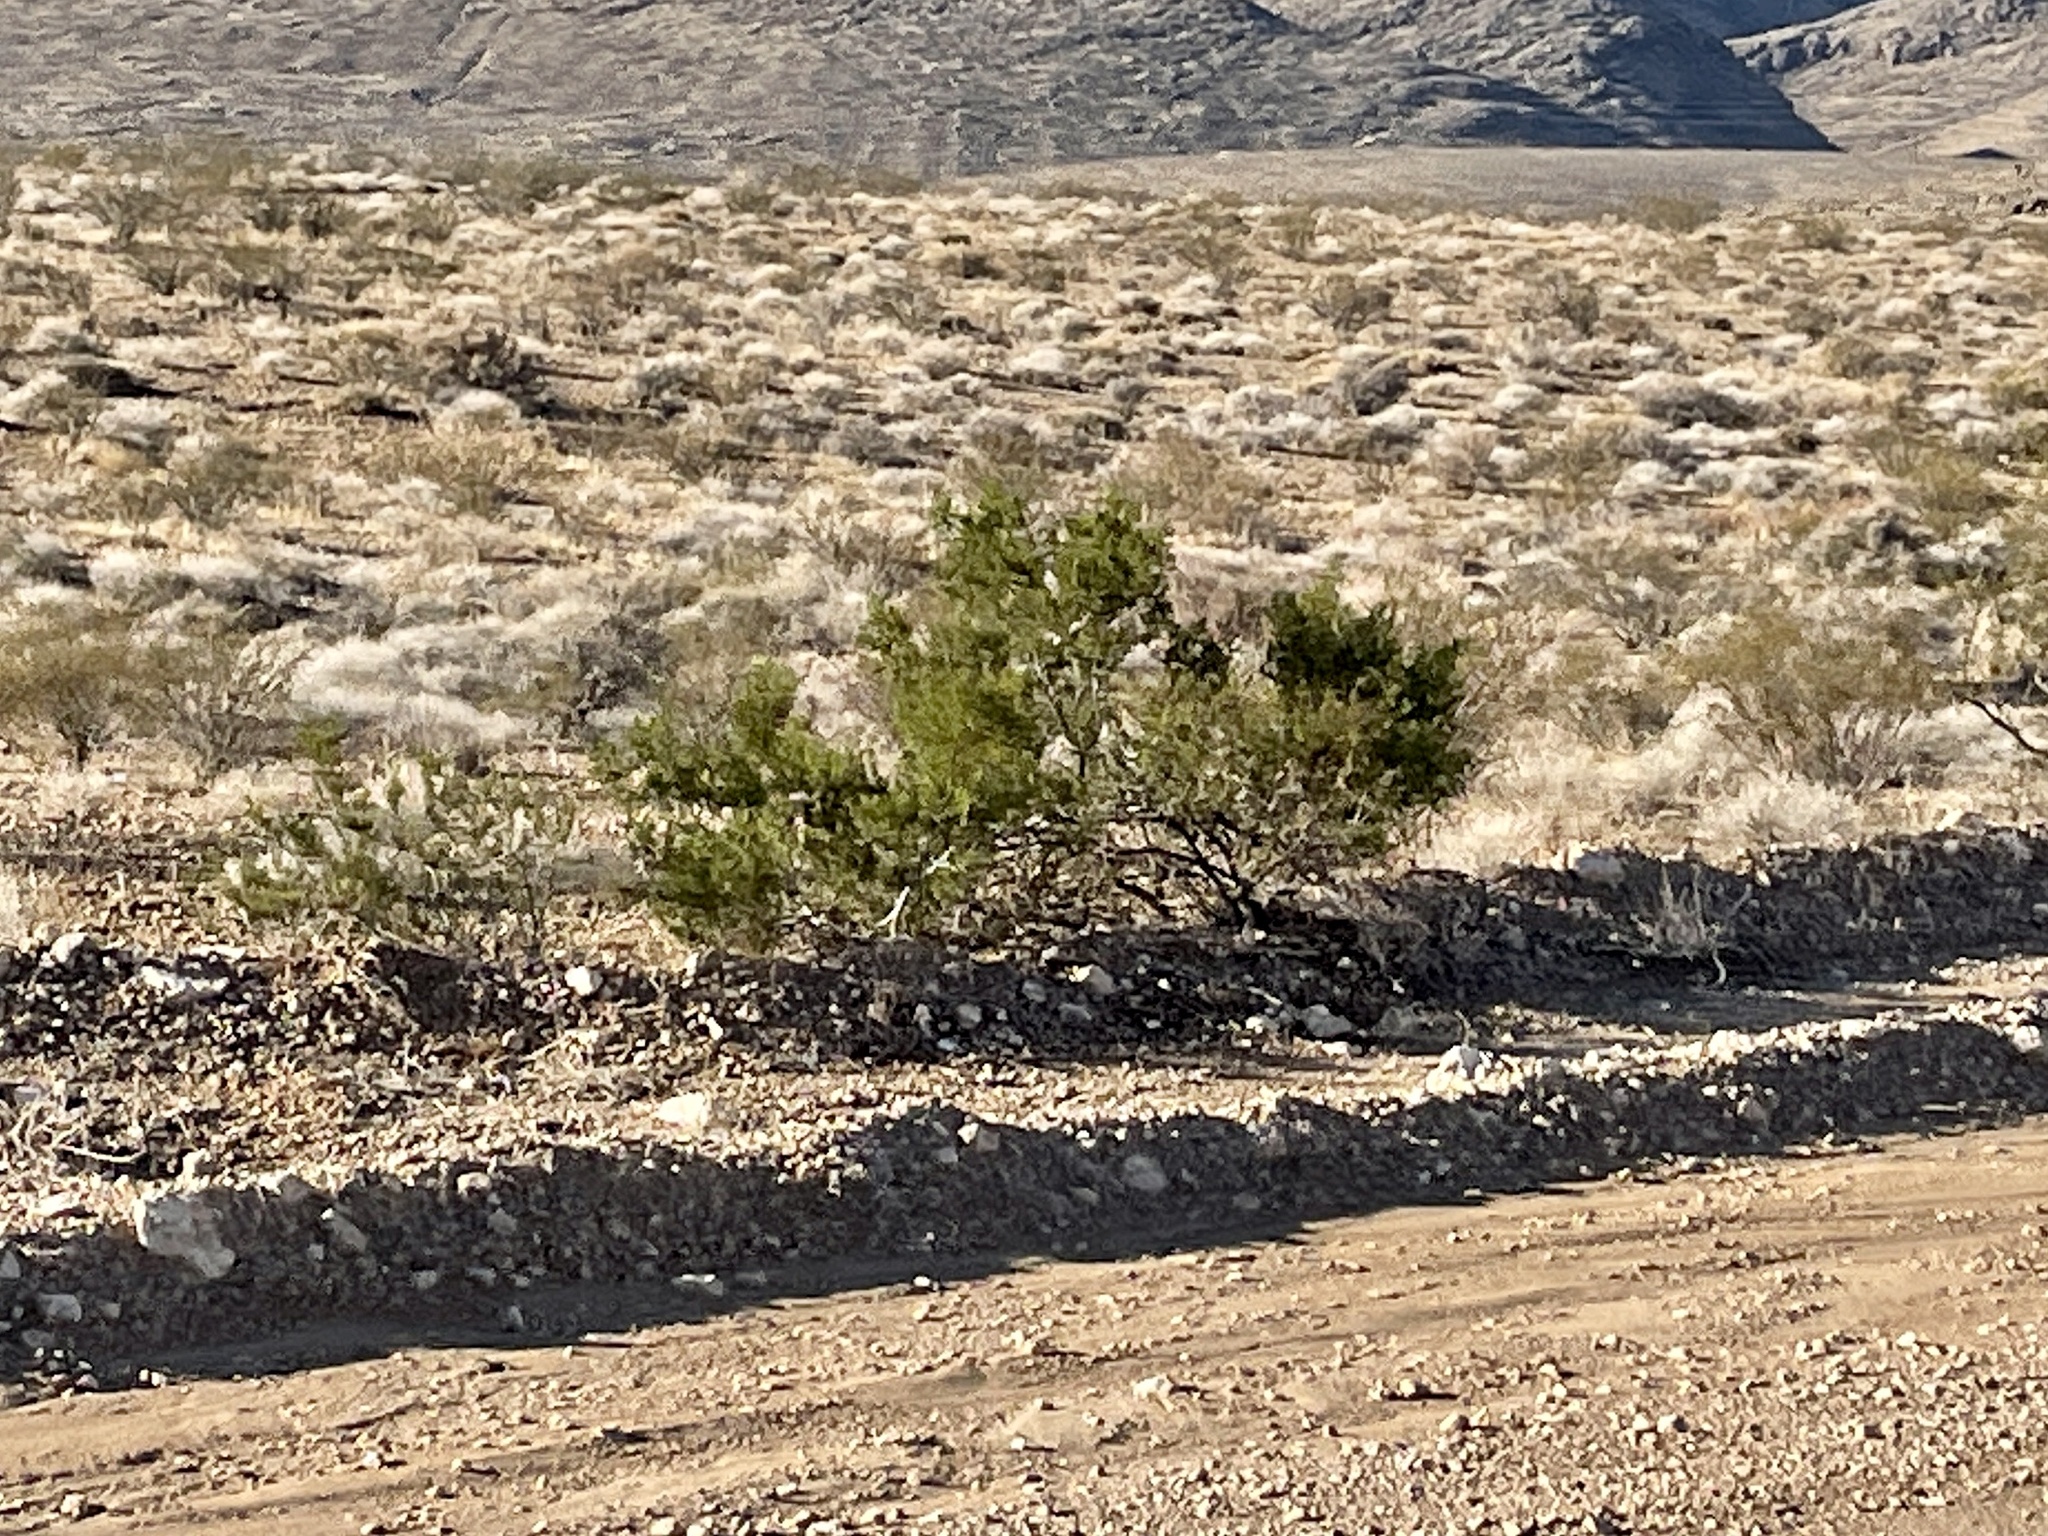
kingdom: Plantae
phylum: Tracheophyta
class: Magnoliopsida
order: Zygophyllales
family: Zygophyllaceae
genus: Larrea
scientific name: Larrea tridentata
